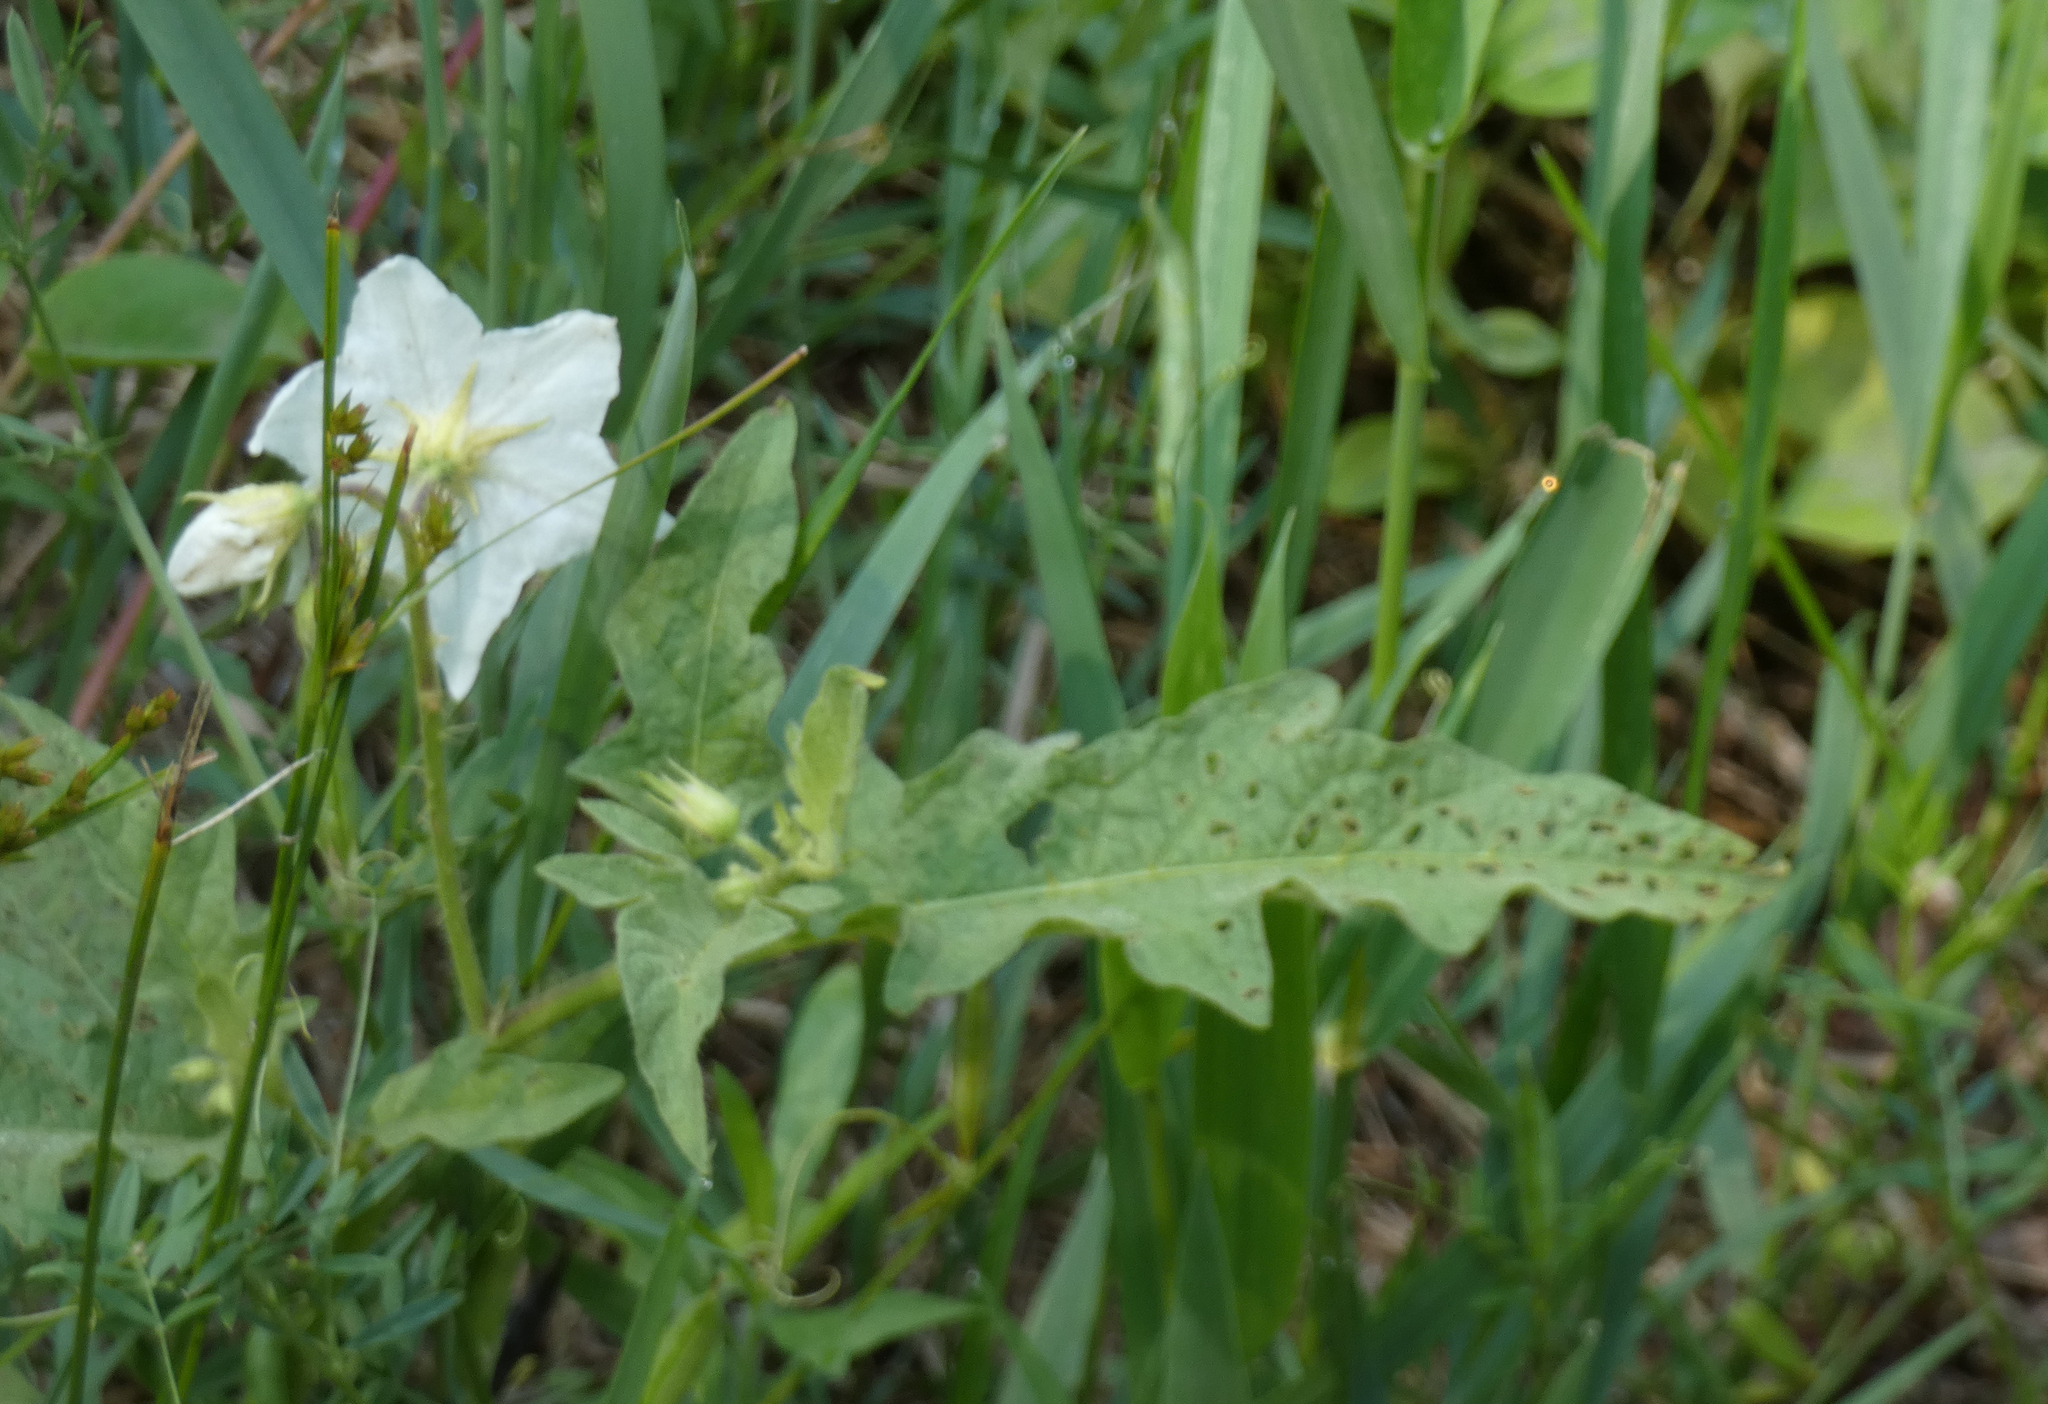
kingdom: Plantae
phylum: Tracheophyta
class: Magnoliopsida
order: Solanales
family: Solanaceae
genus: Solanum
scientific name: Solanum carolinense
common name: Horse-nettle
